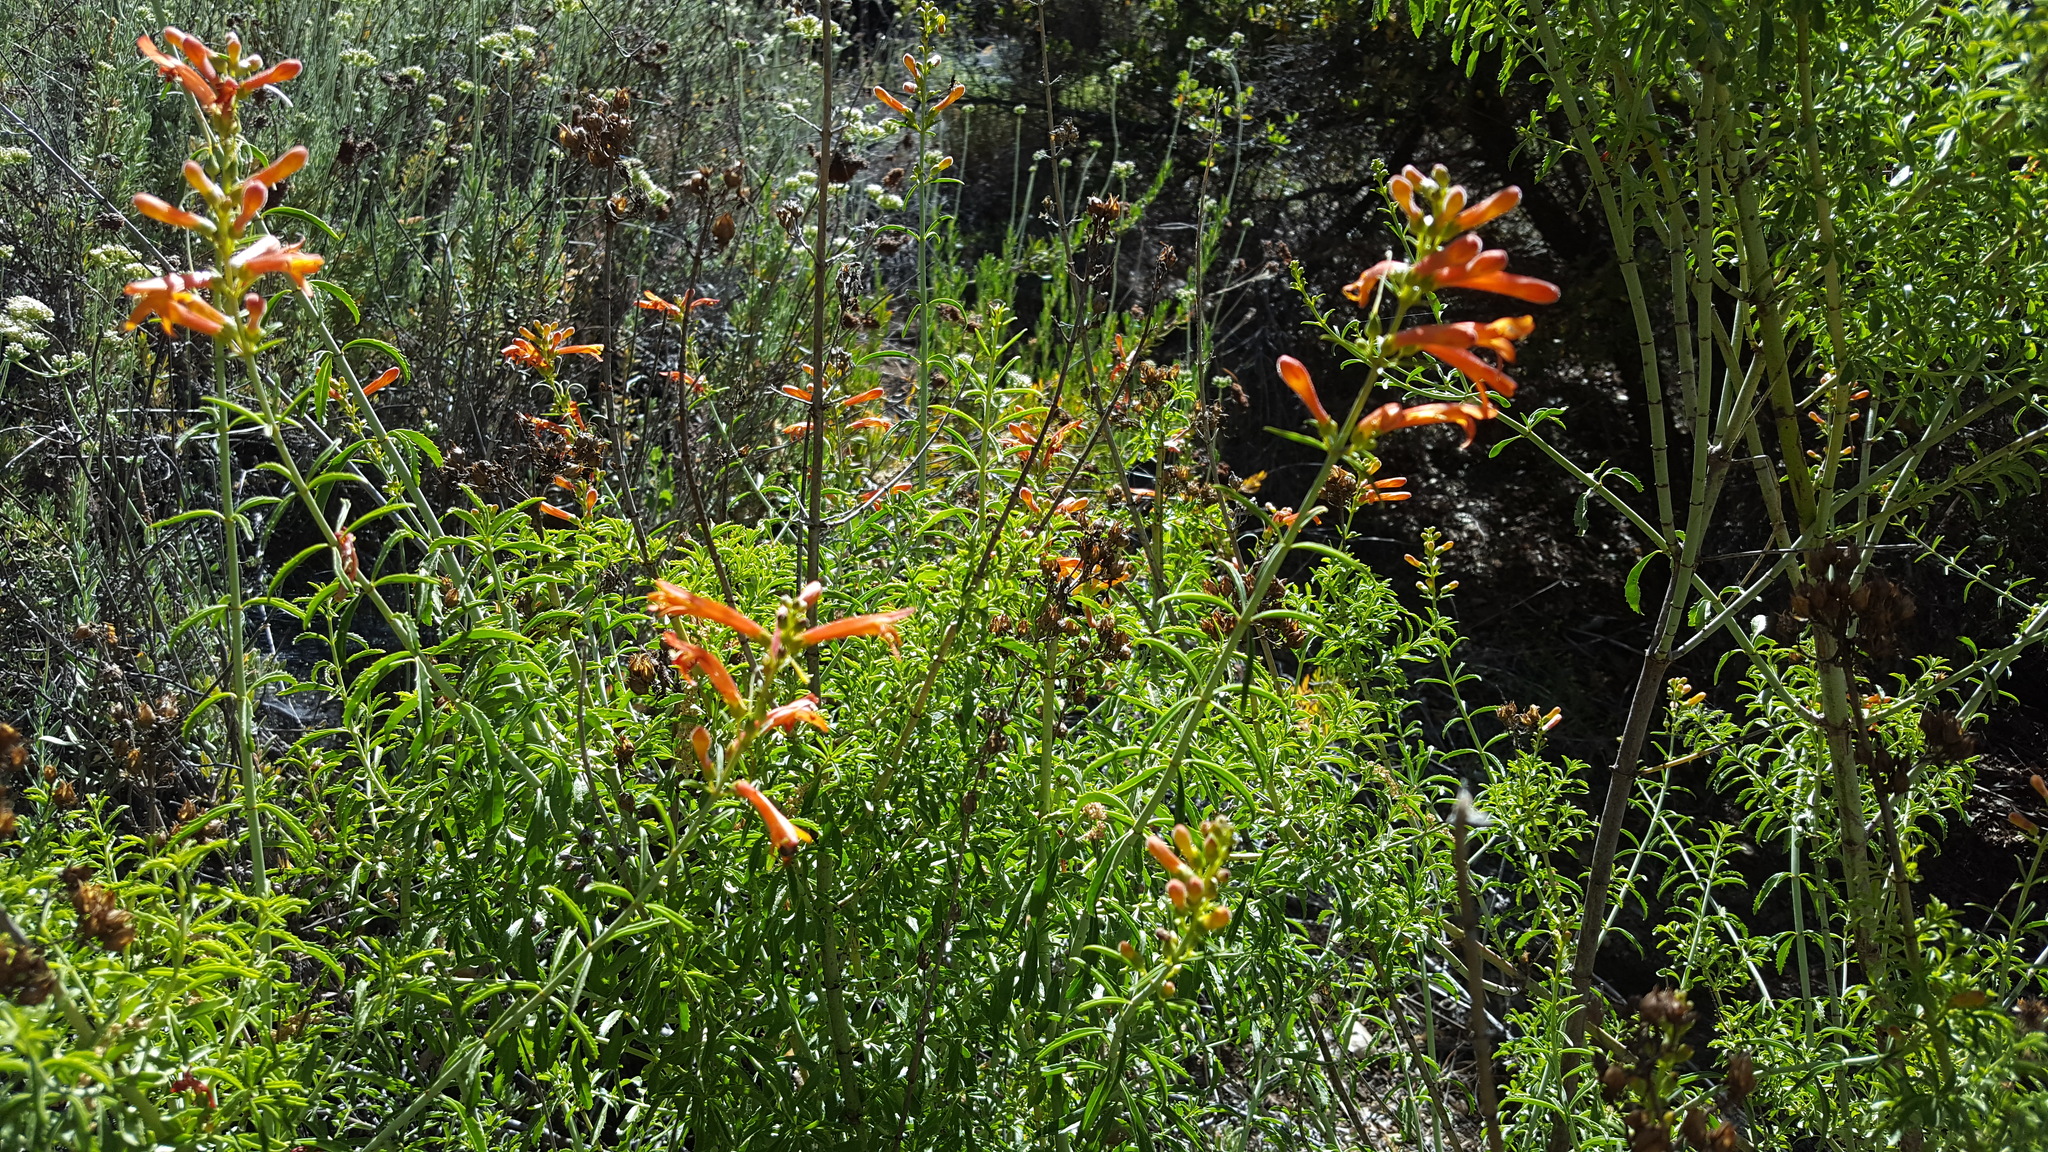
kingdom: Plantae
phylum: Tracheophyta
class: Magnoliopsida
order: Lamiales
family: Plantaginaceae
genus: Keckiella
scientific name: Keckiella ternata
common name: Scarlet keckiella
